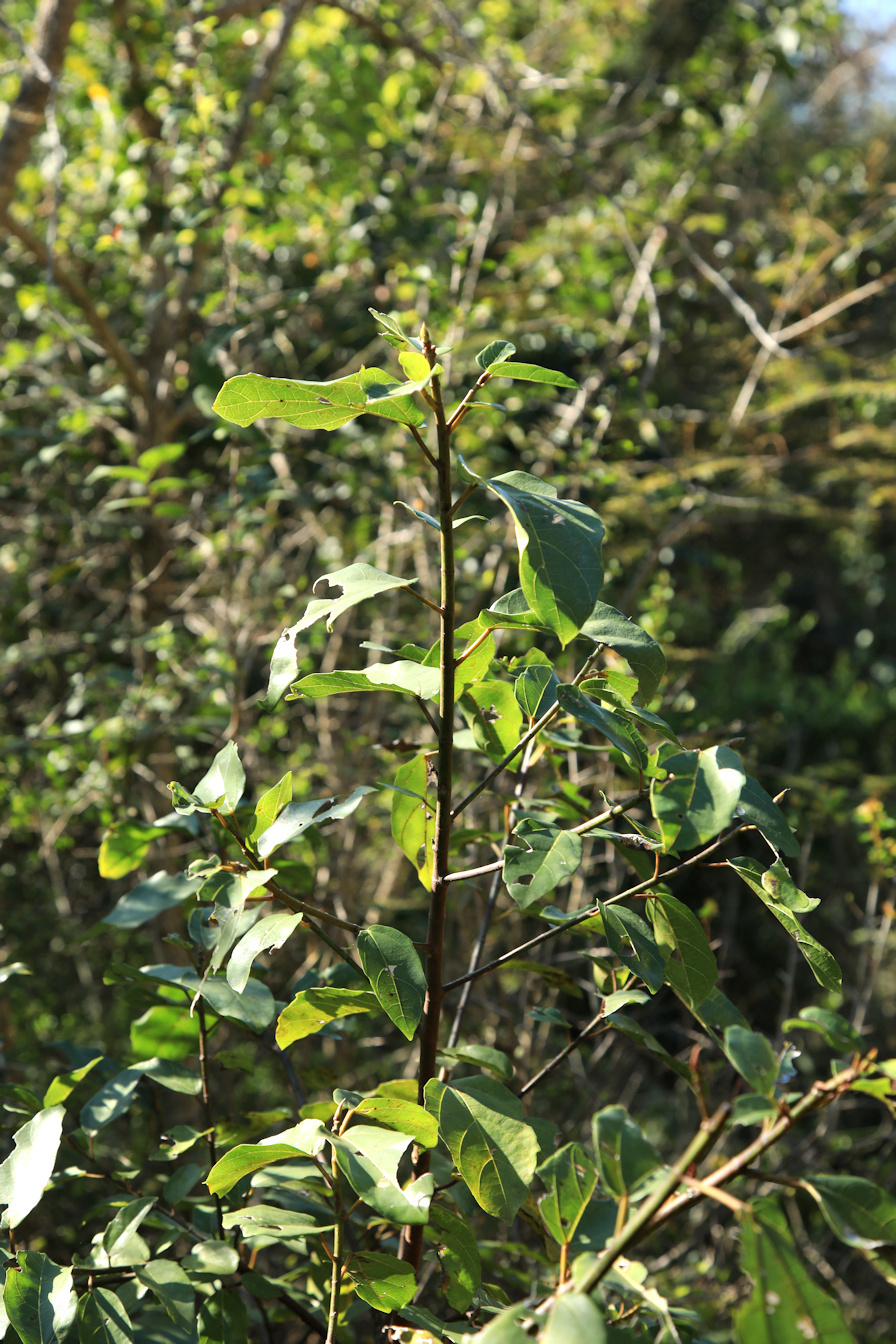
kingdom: Plantae
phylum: Tracheophyta
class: Magnoliopsida
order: Rosales
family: Moraceae
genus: Ficus
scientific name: Ficus sur
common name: Cape fig
